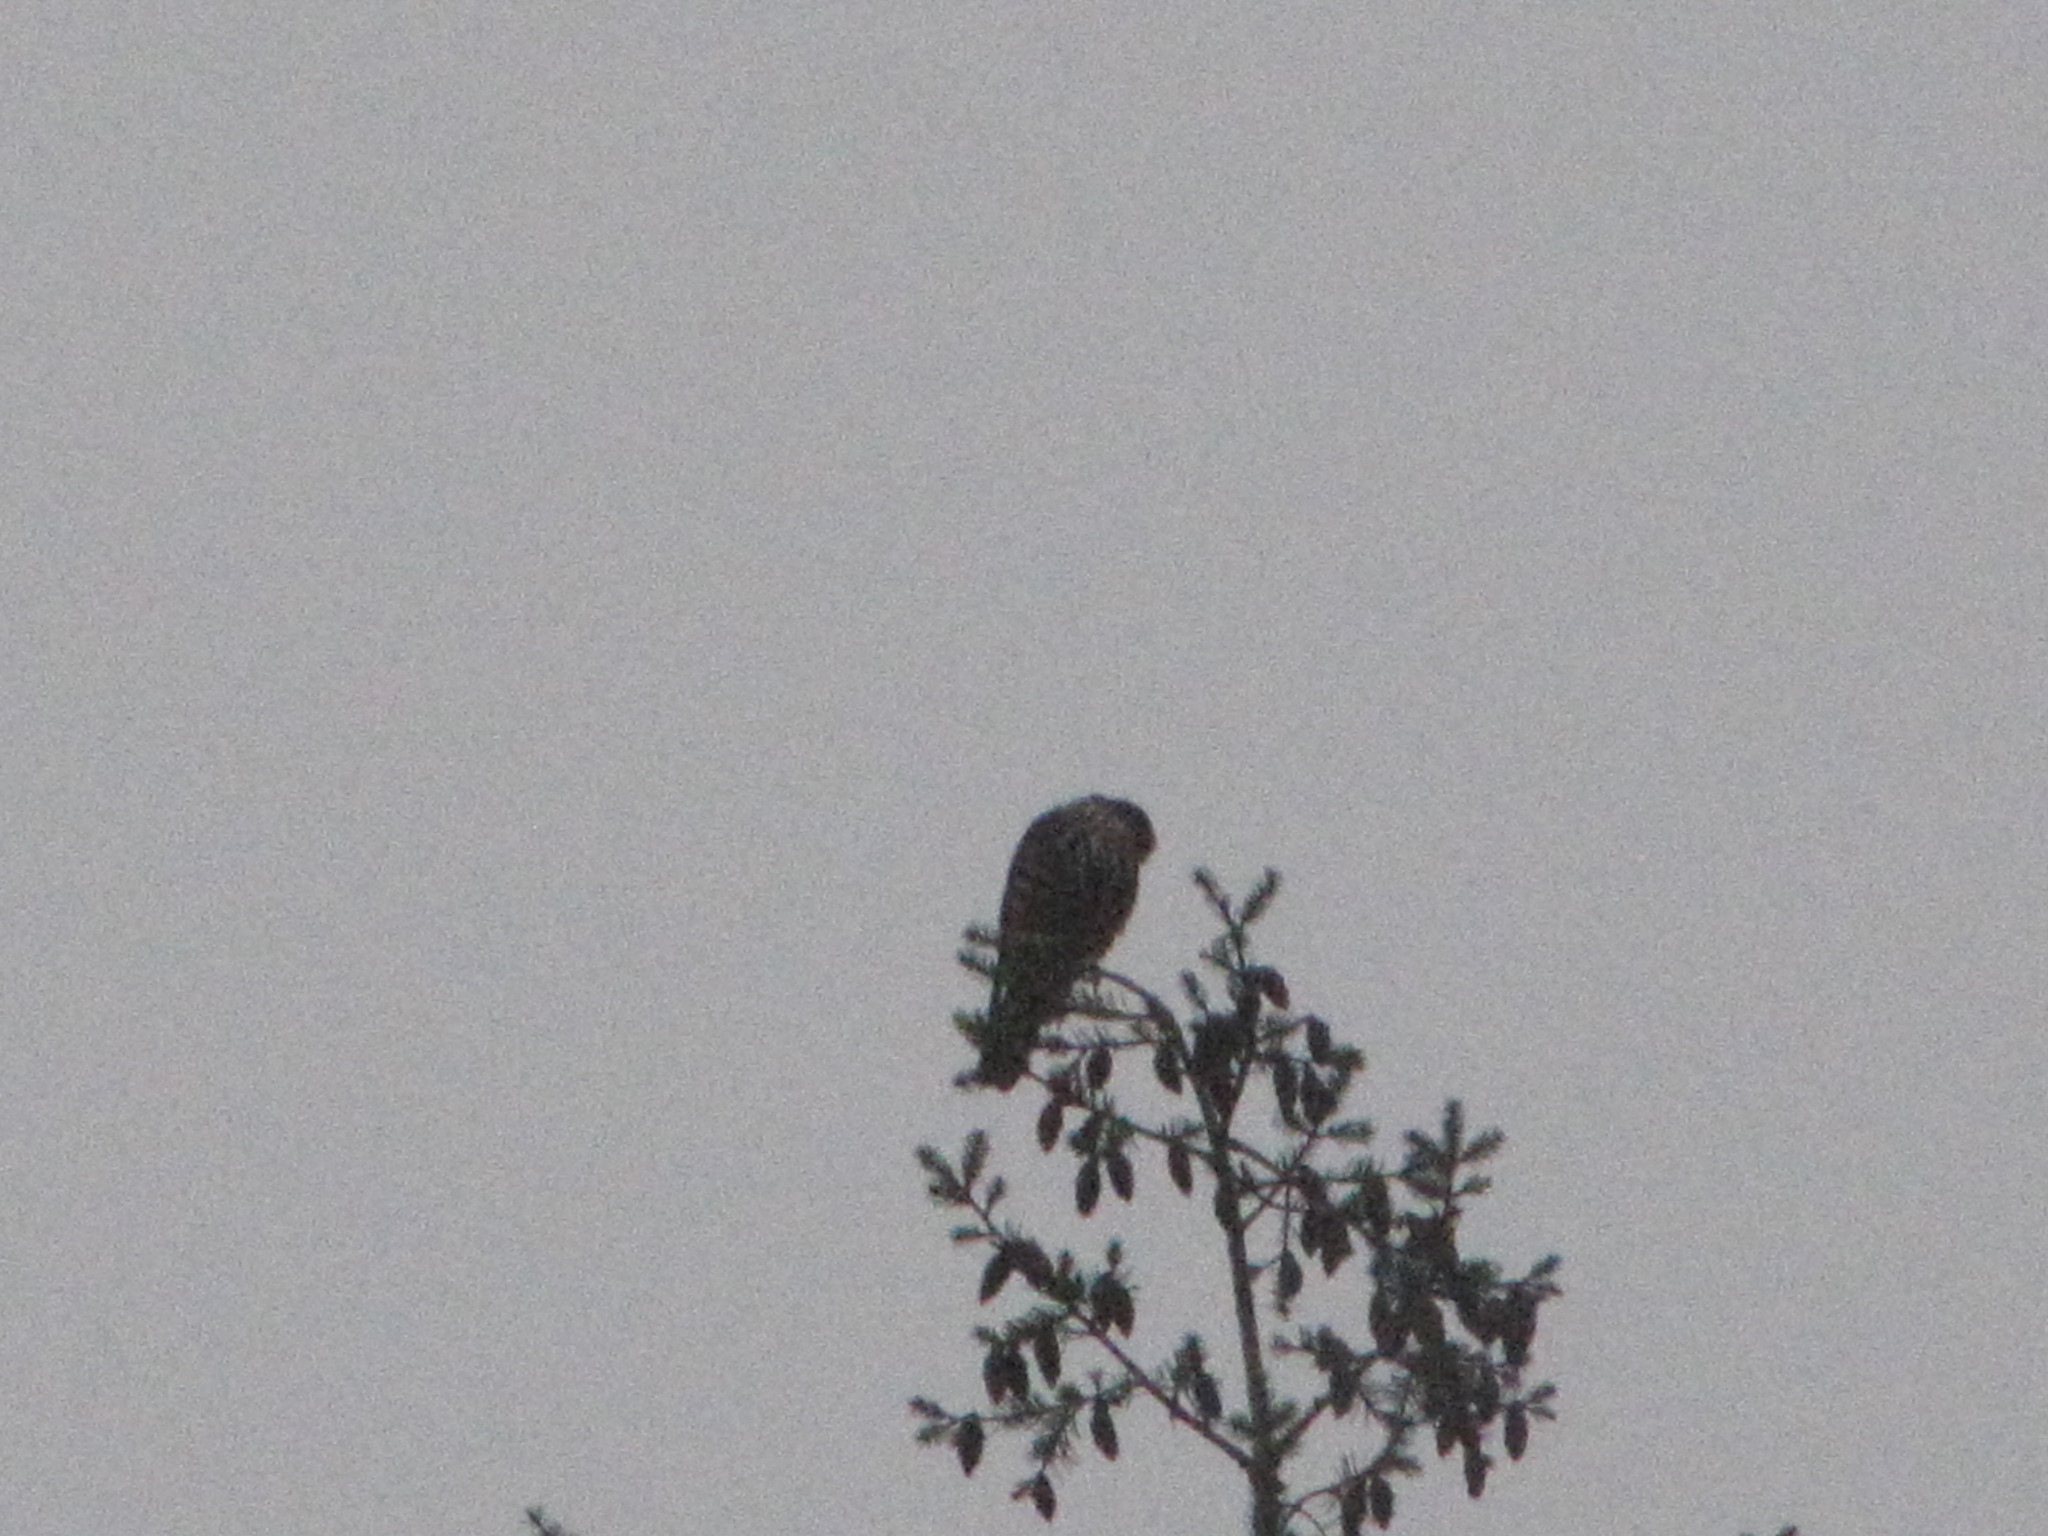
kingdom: Animalia
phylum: Chordata
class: Aves
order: Falconiformes
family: Falconidae
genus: Falco
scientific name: Falco columbarius
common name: Merlin
